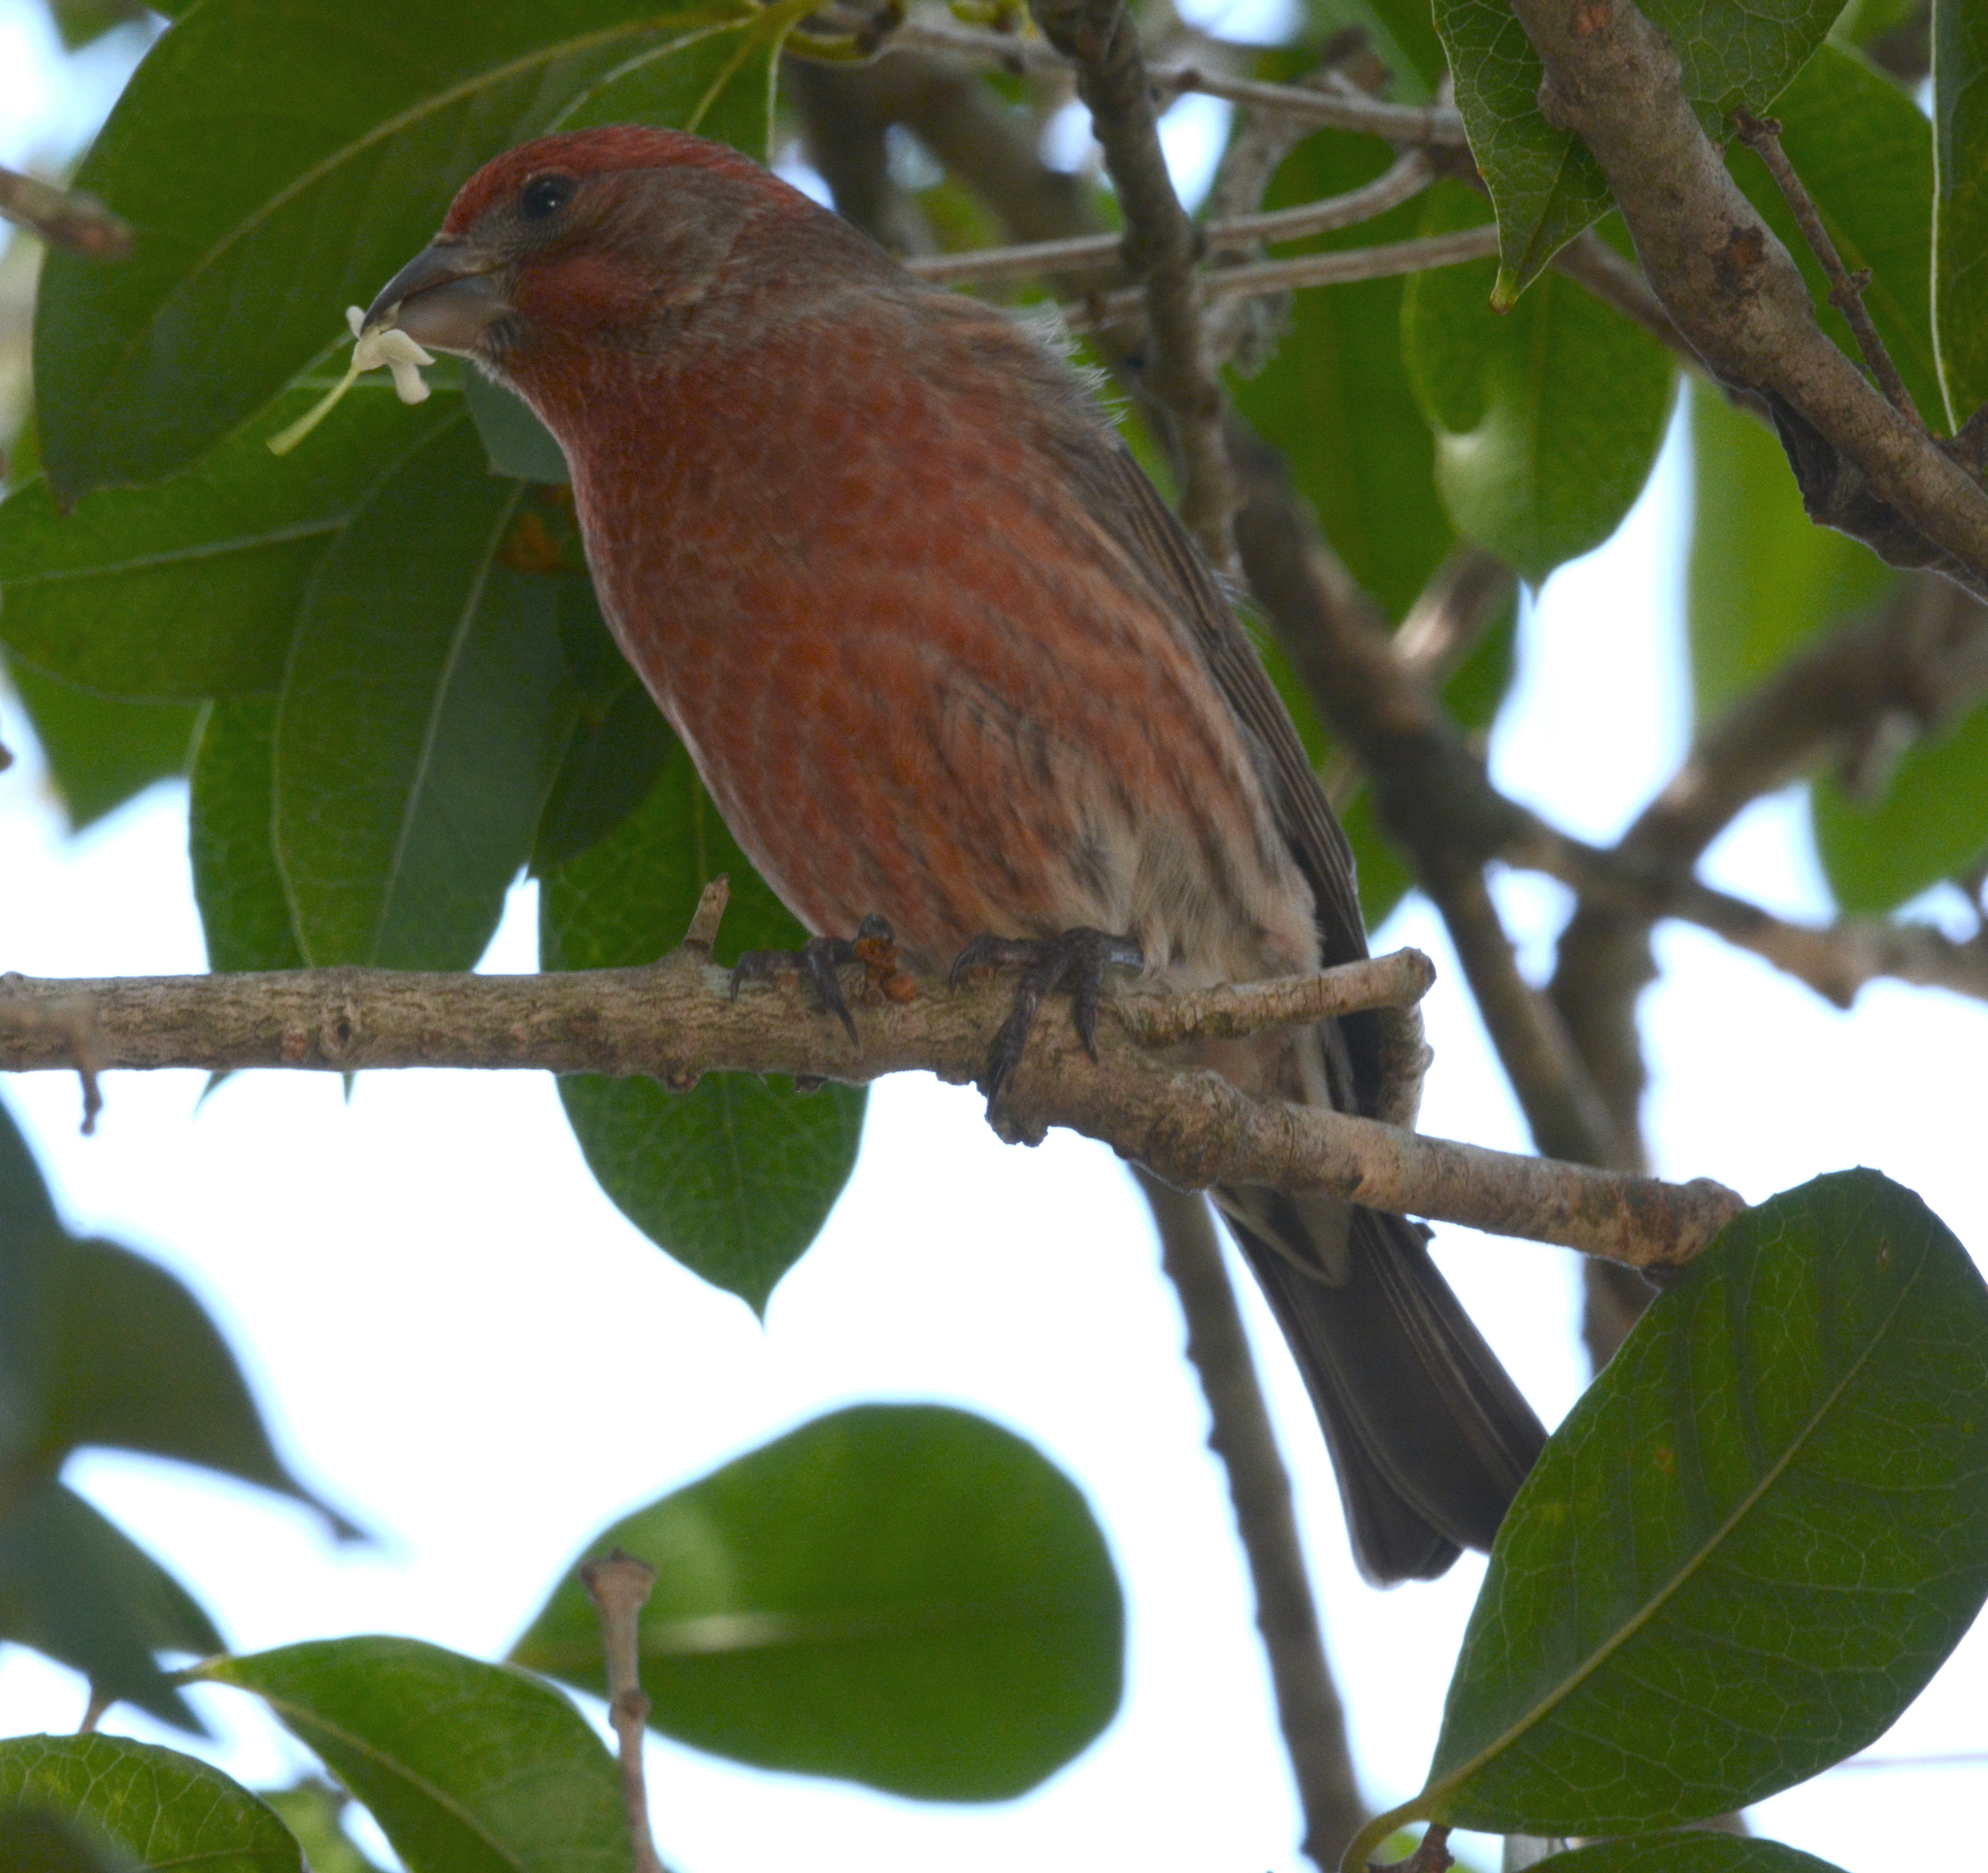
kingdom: Animalia
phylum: Chordata
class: Aves
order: Passeriformes
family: Fringillidae
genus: Haemorhous
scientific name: Haemorhous mexicanus
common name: House finch
